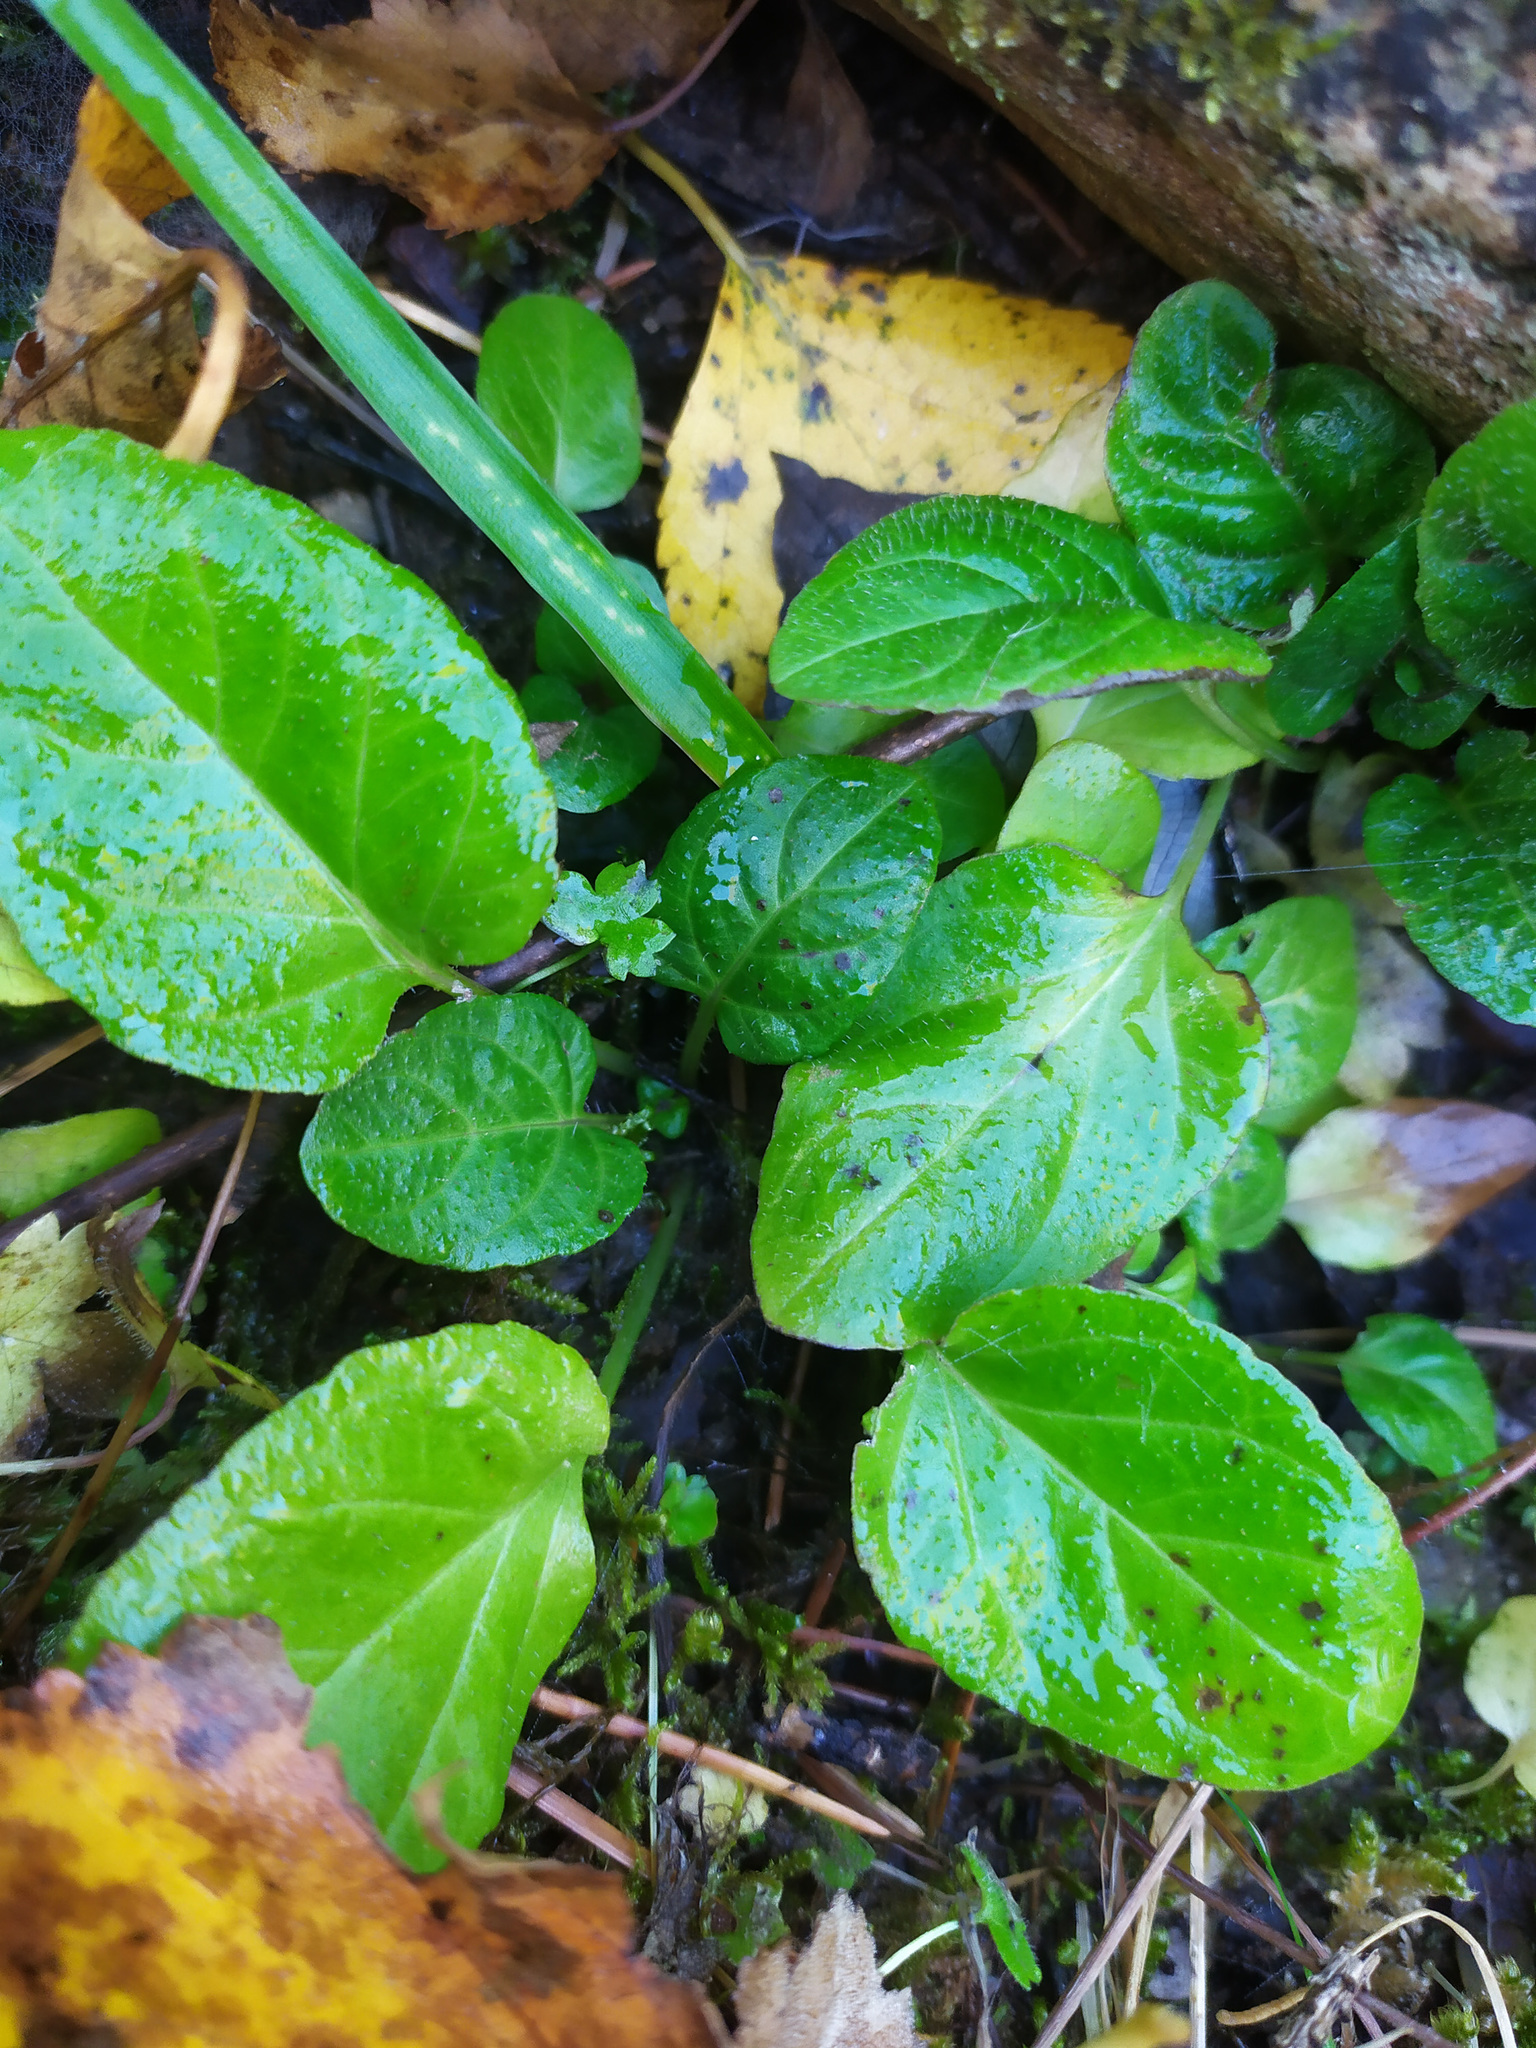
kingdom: Plantae
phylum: Tracheophyta
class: Magnoliopsida
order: Lamiales
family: Lamiaceae
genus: Prunella
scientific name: Prunella vulgaris
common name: Heal-all
